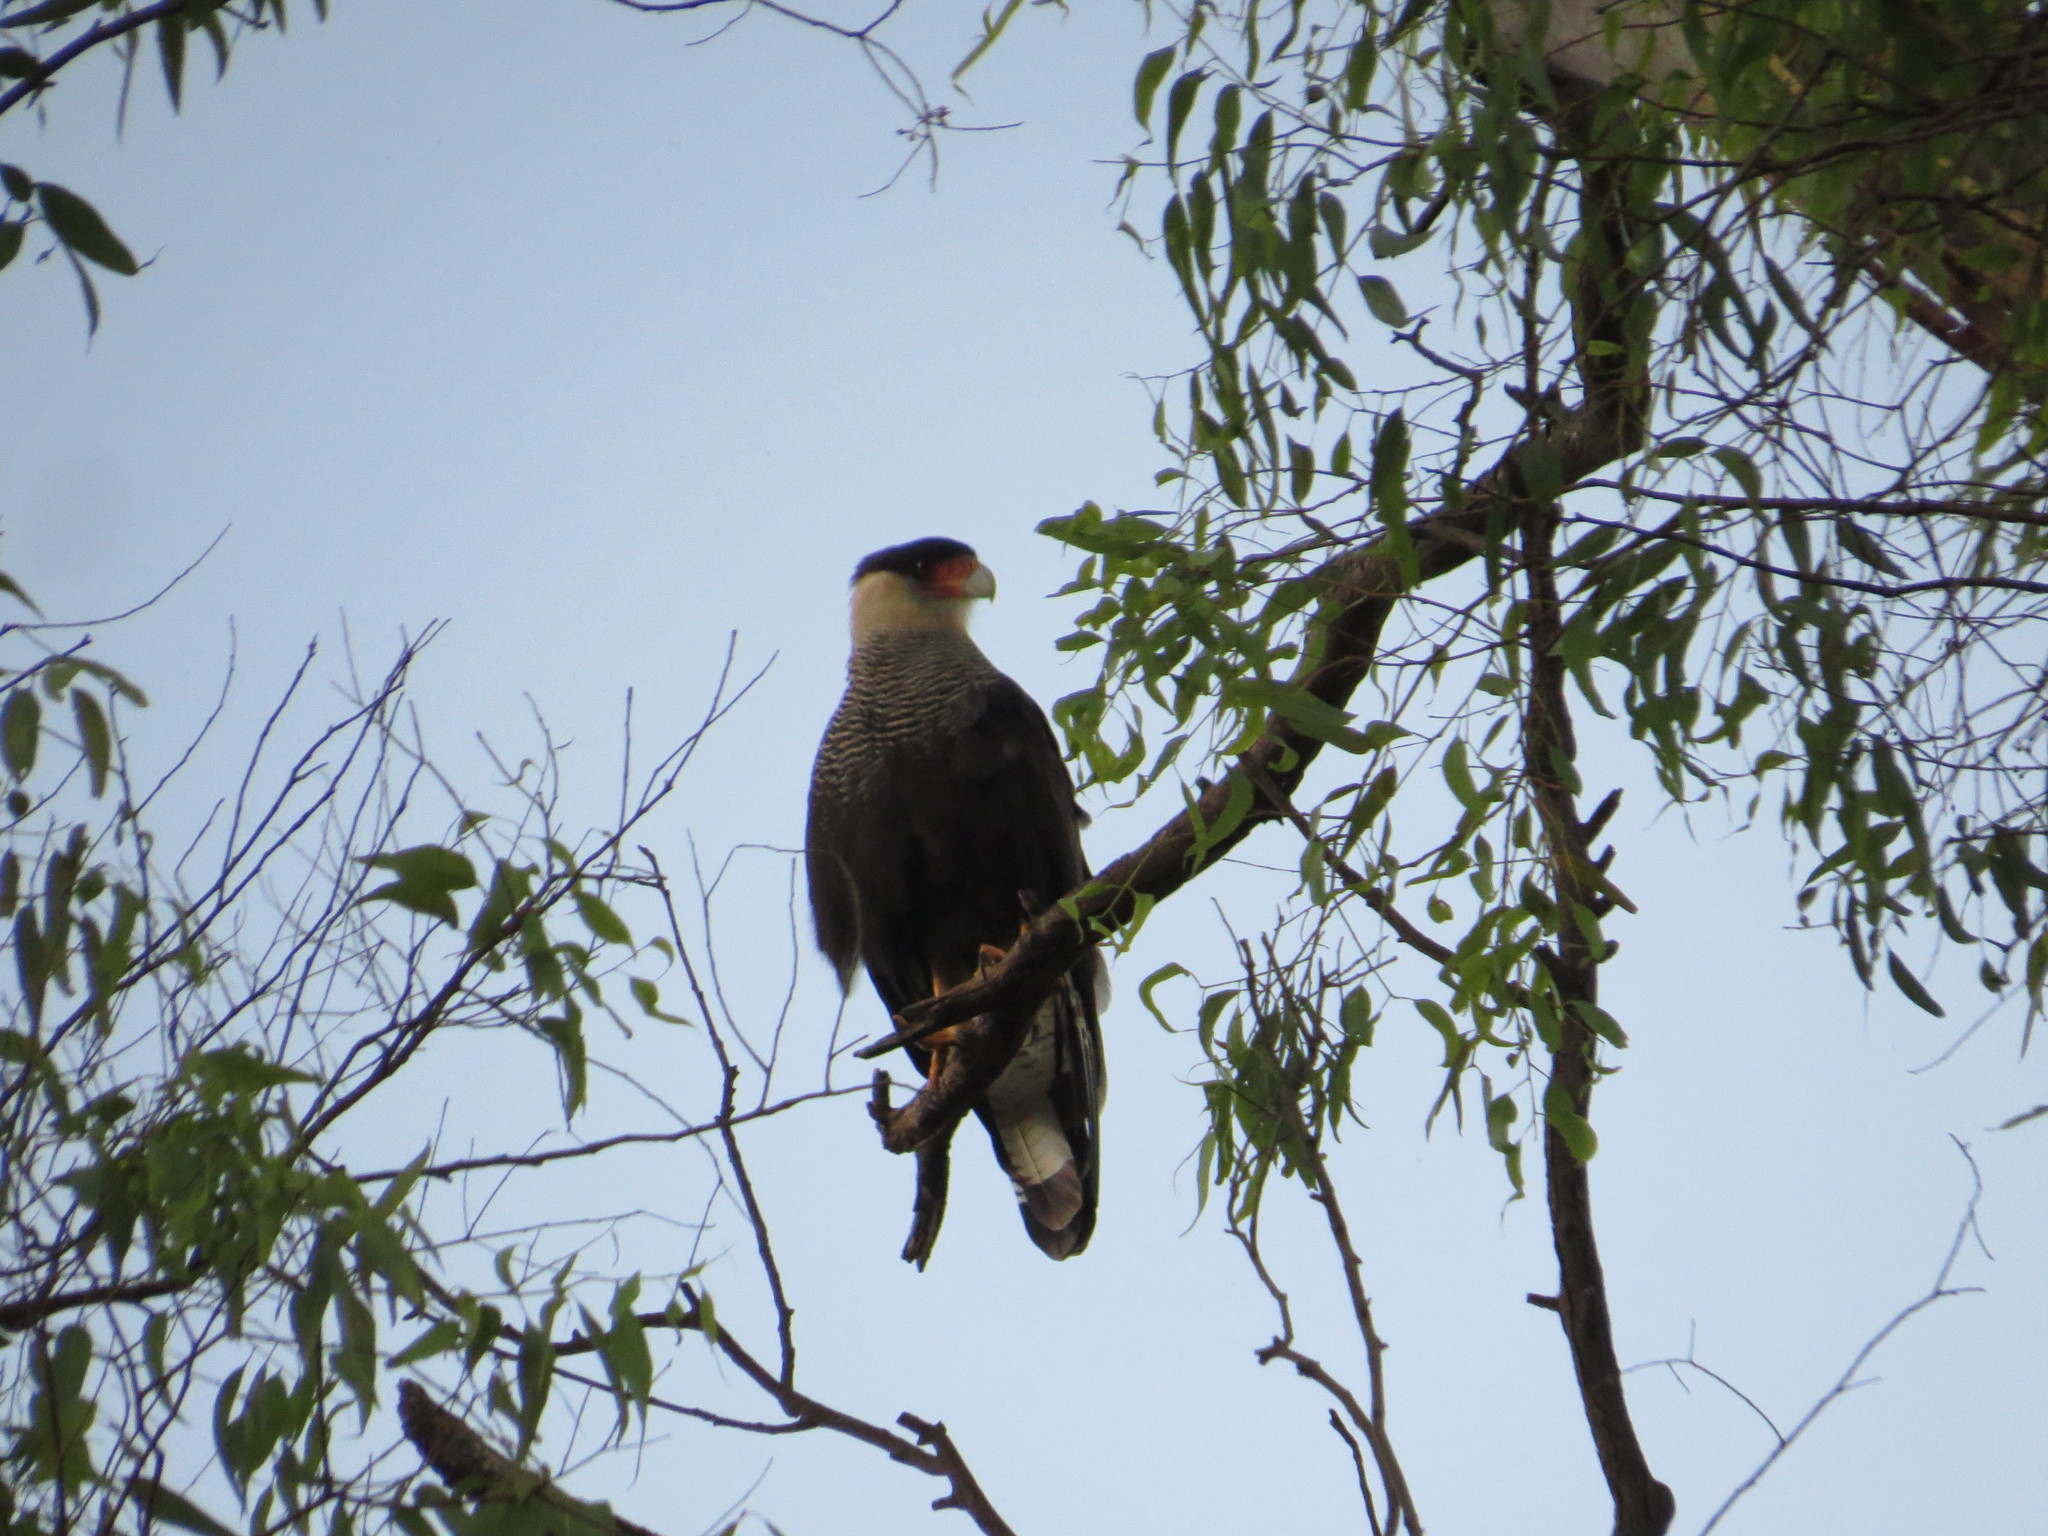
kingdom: Animalia
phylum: Chordata
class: Aves
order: Falconiformes
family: Falconidae
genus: Caracara
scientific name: Caracara plancus
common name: Southern caracara
